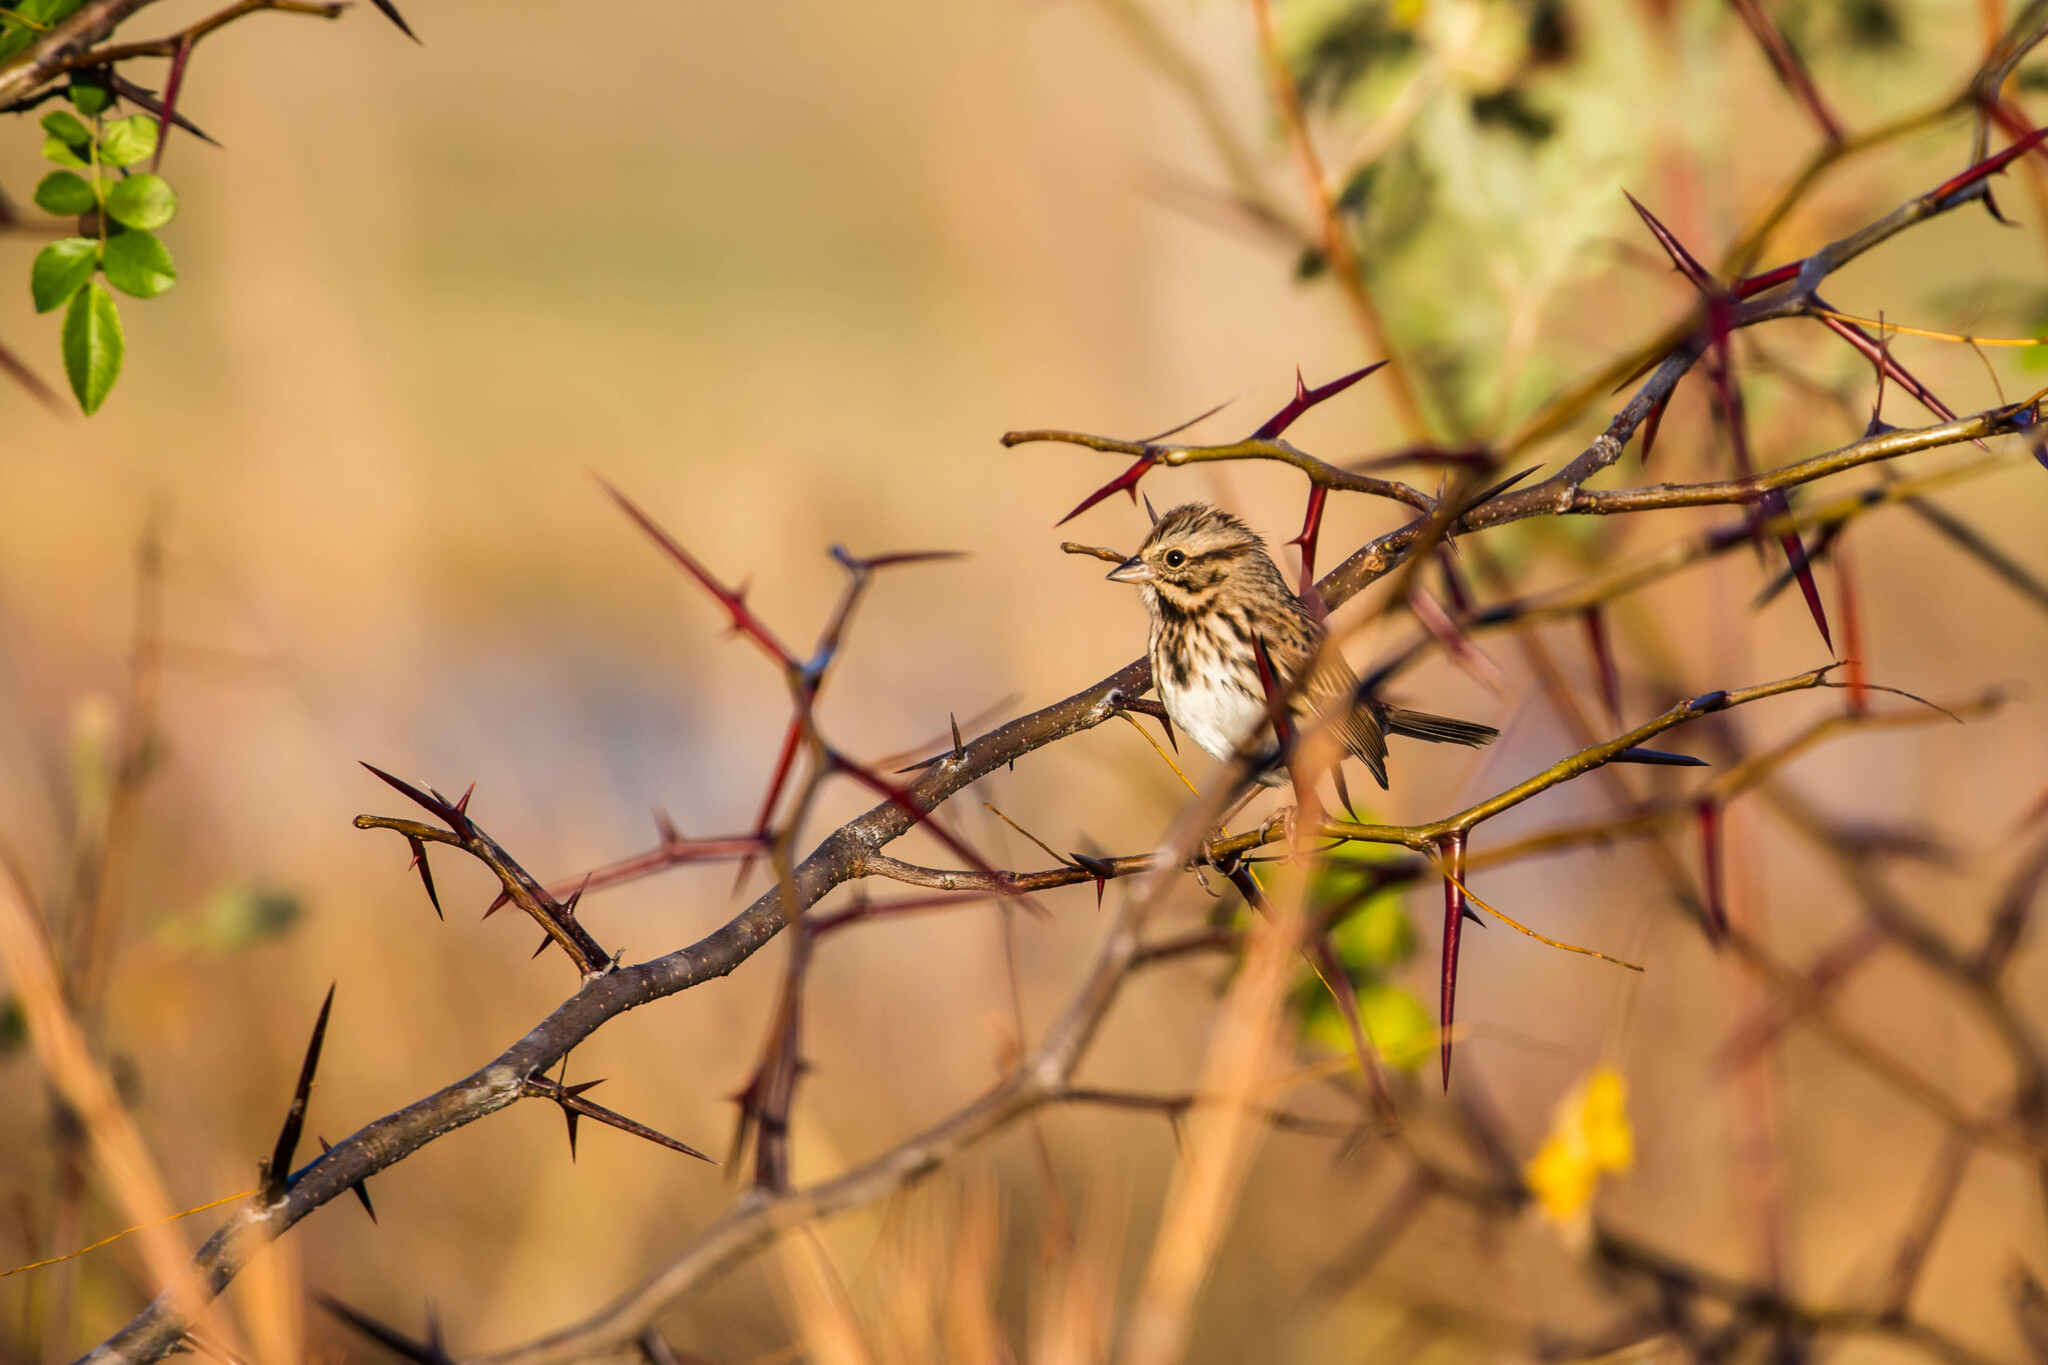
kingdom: Animalia
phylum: Chordata
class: Aves
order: Passeriformes
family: Passerellidae
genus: Melospiza
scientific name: Melospiza melodia
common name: Song sparrow
